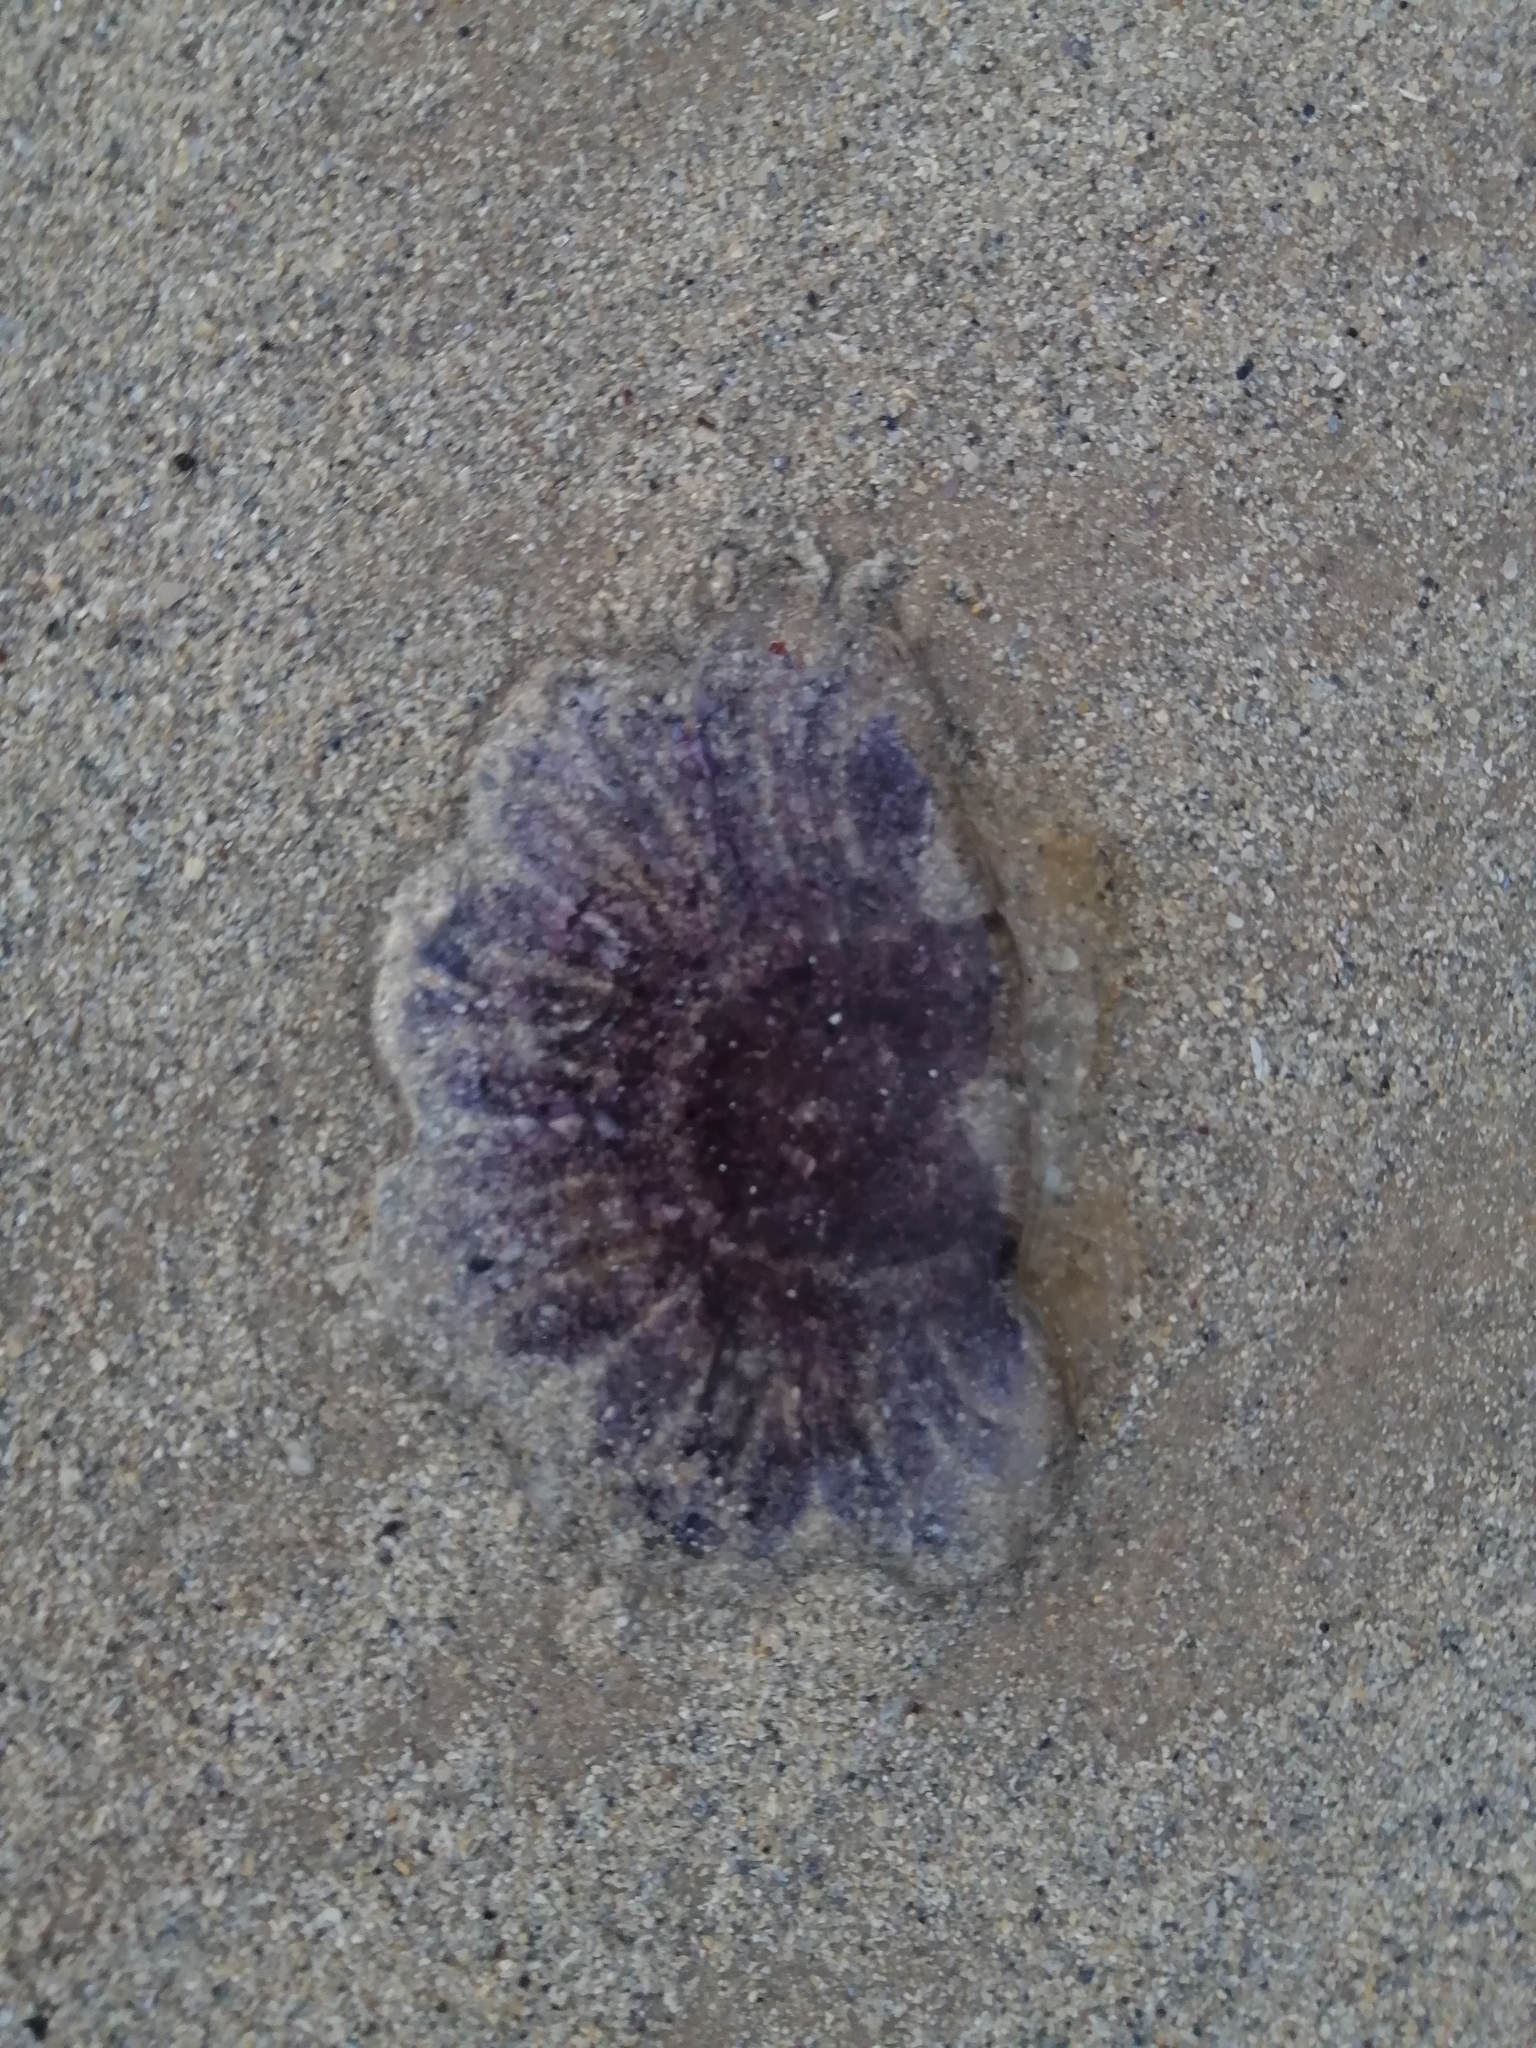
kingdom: Animalia
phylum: Cnidaria
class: Scyphozoa
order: Semaeostomeae
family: Cyaneidae
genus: Cyanea
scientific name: Cyanea lamarckii
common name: Blue jellyfish
